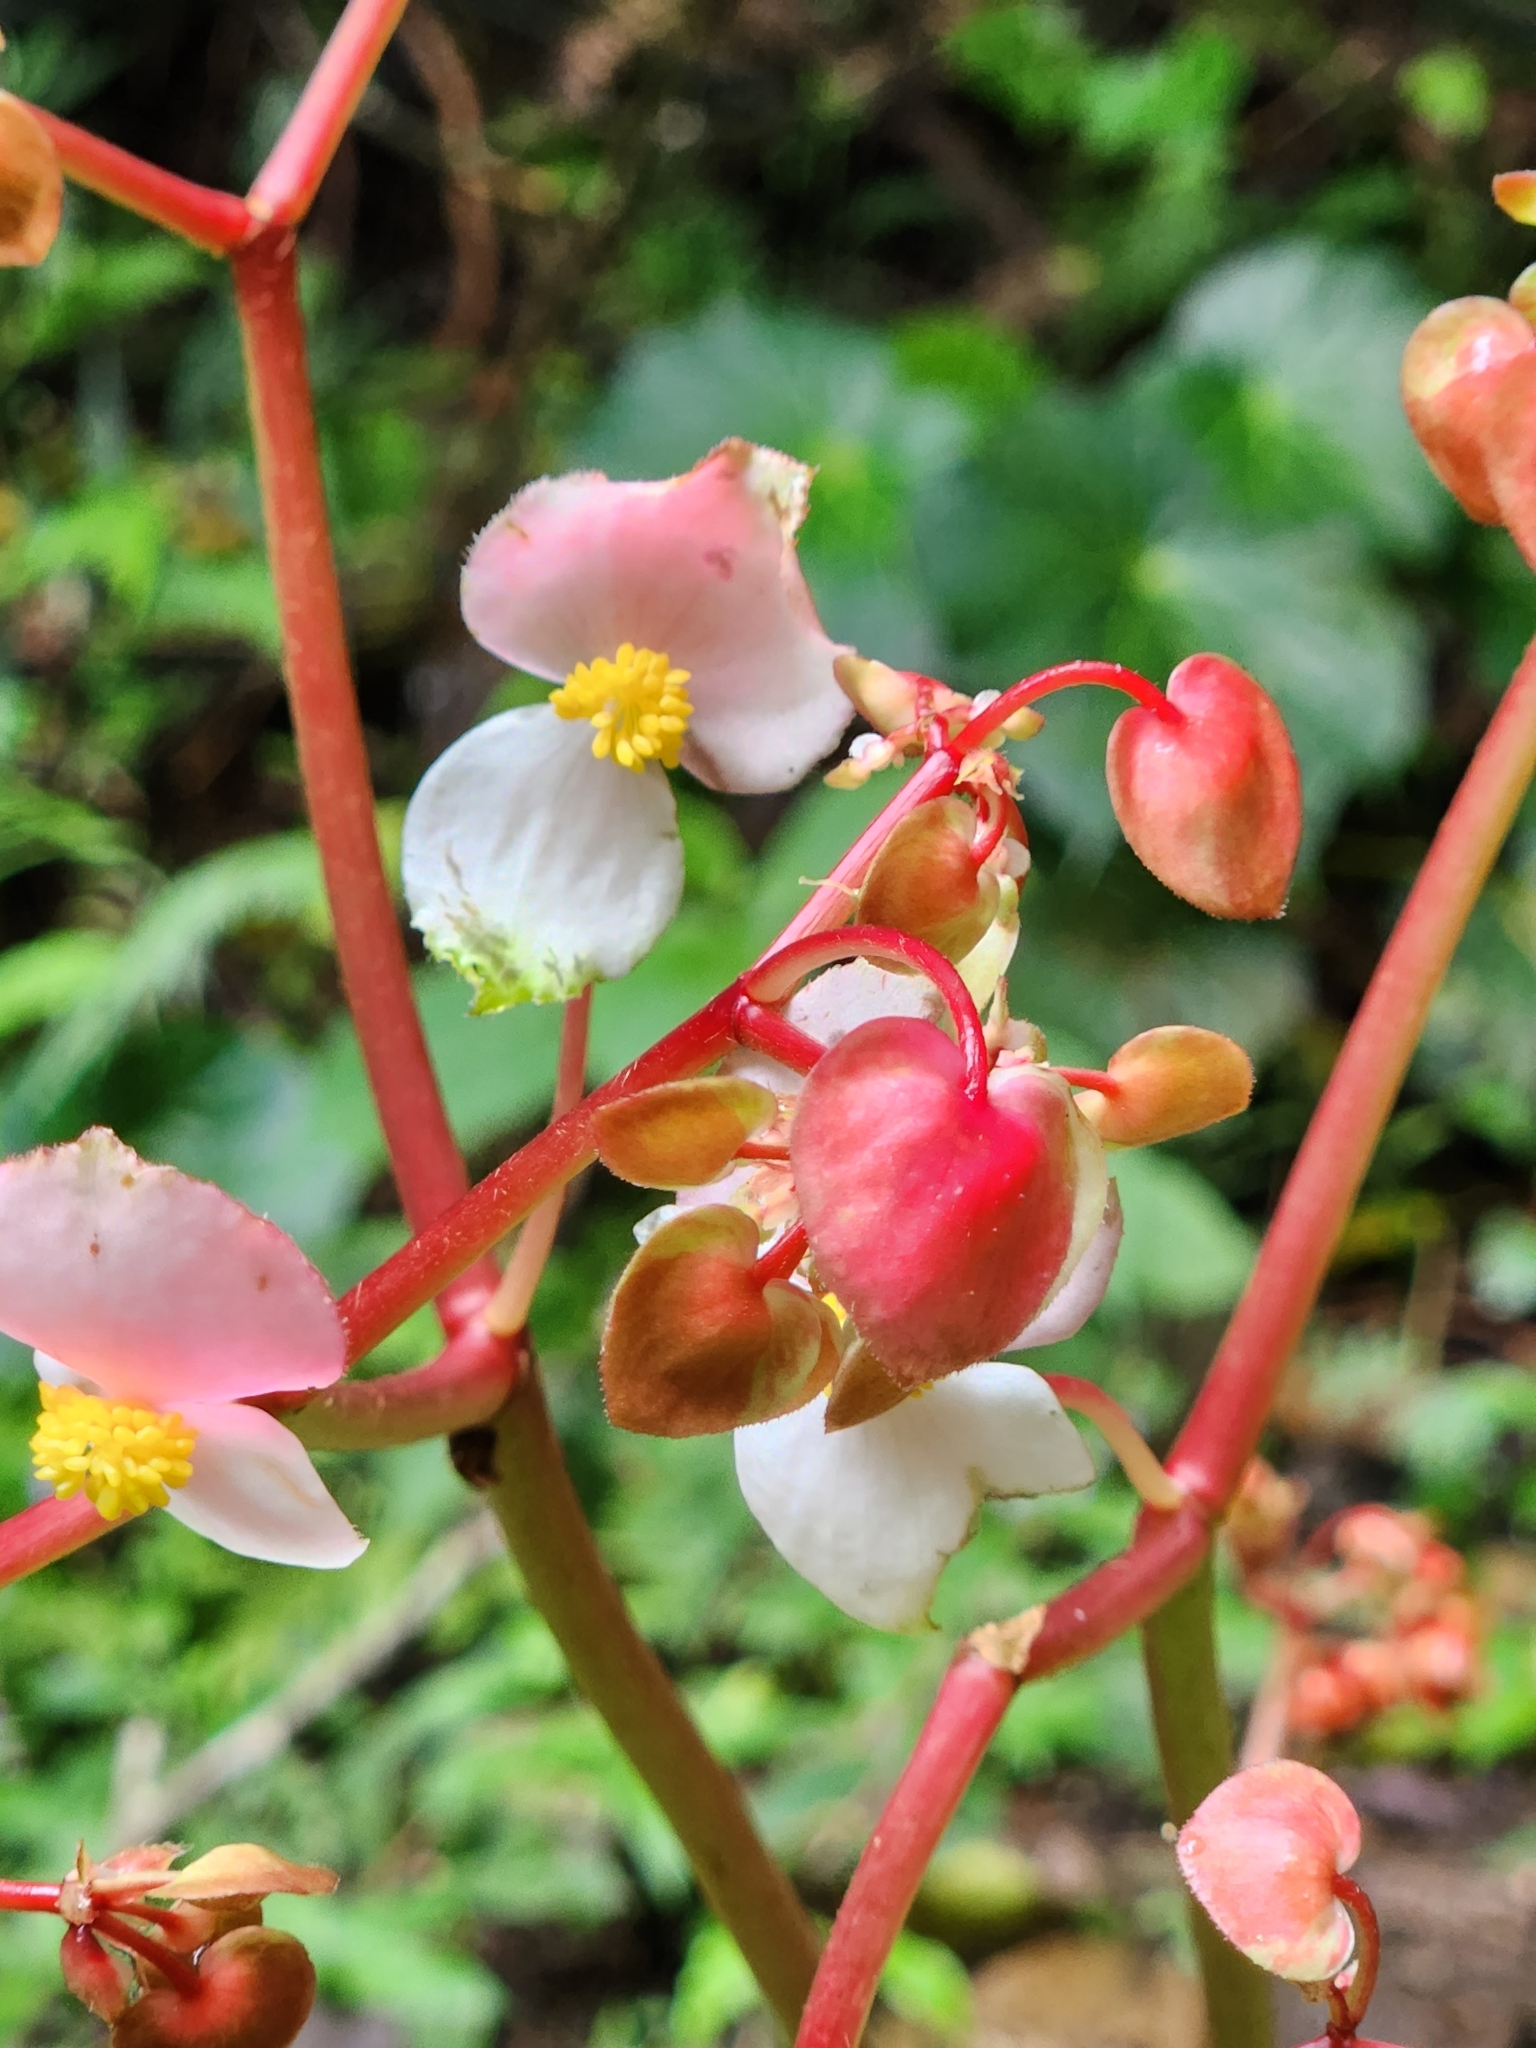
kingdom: Plantae
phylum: Tracheophyta
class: Magnoliopsida
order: Cucurbitales
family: Begoniaceae
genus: Begonia
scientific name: Begonia urophylla
